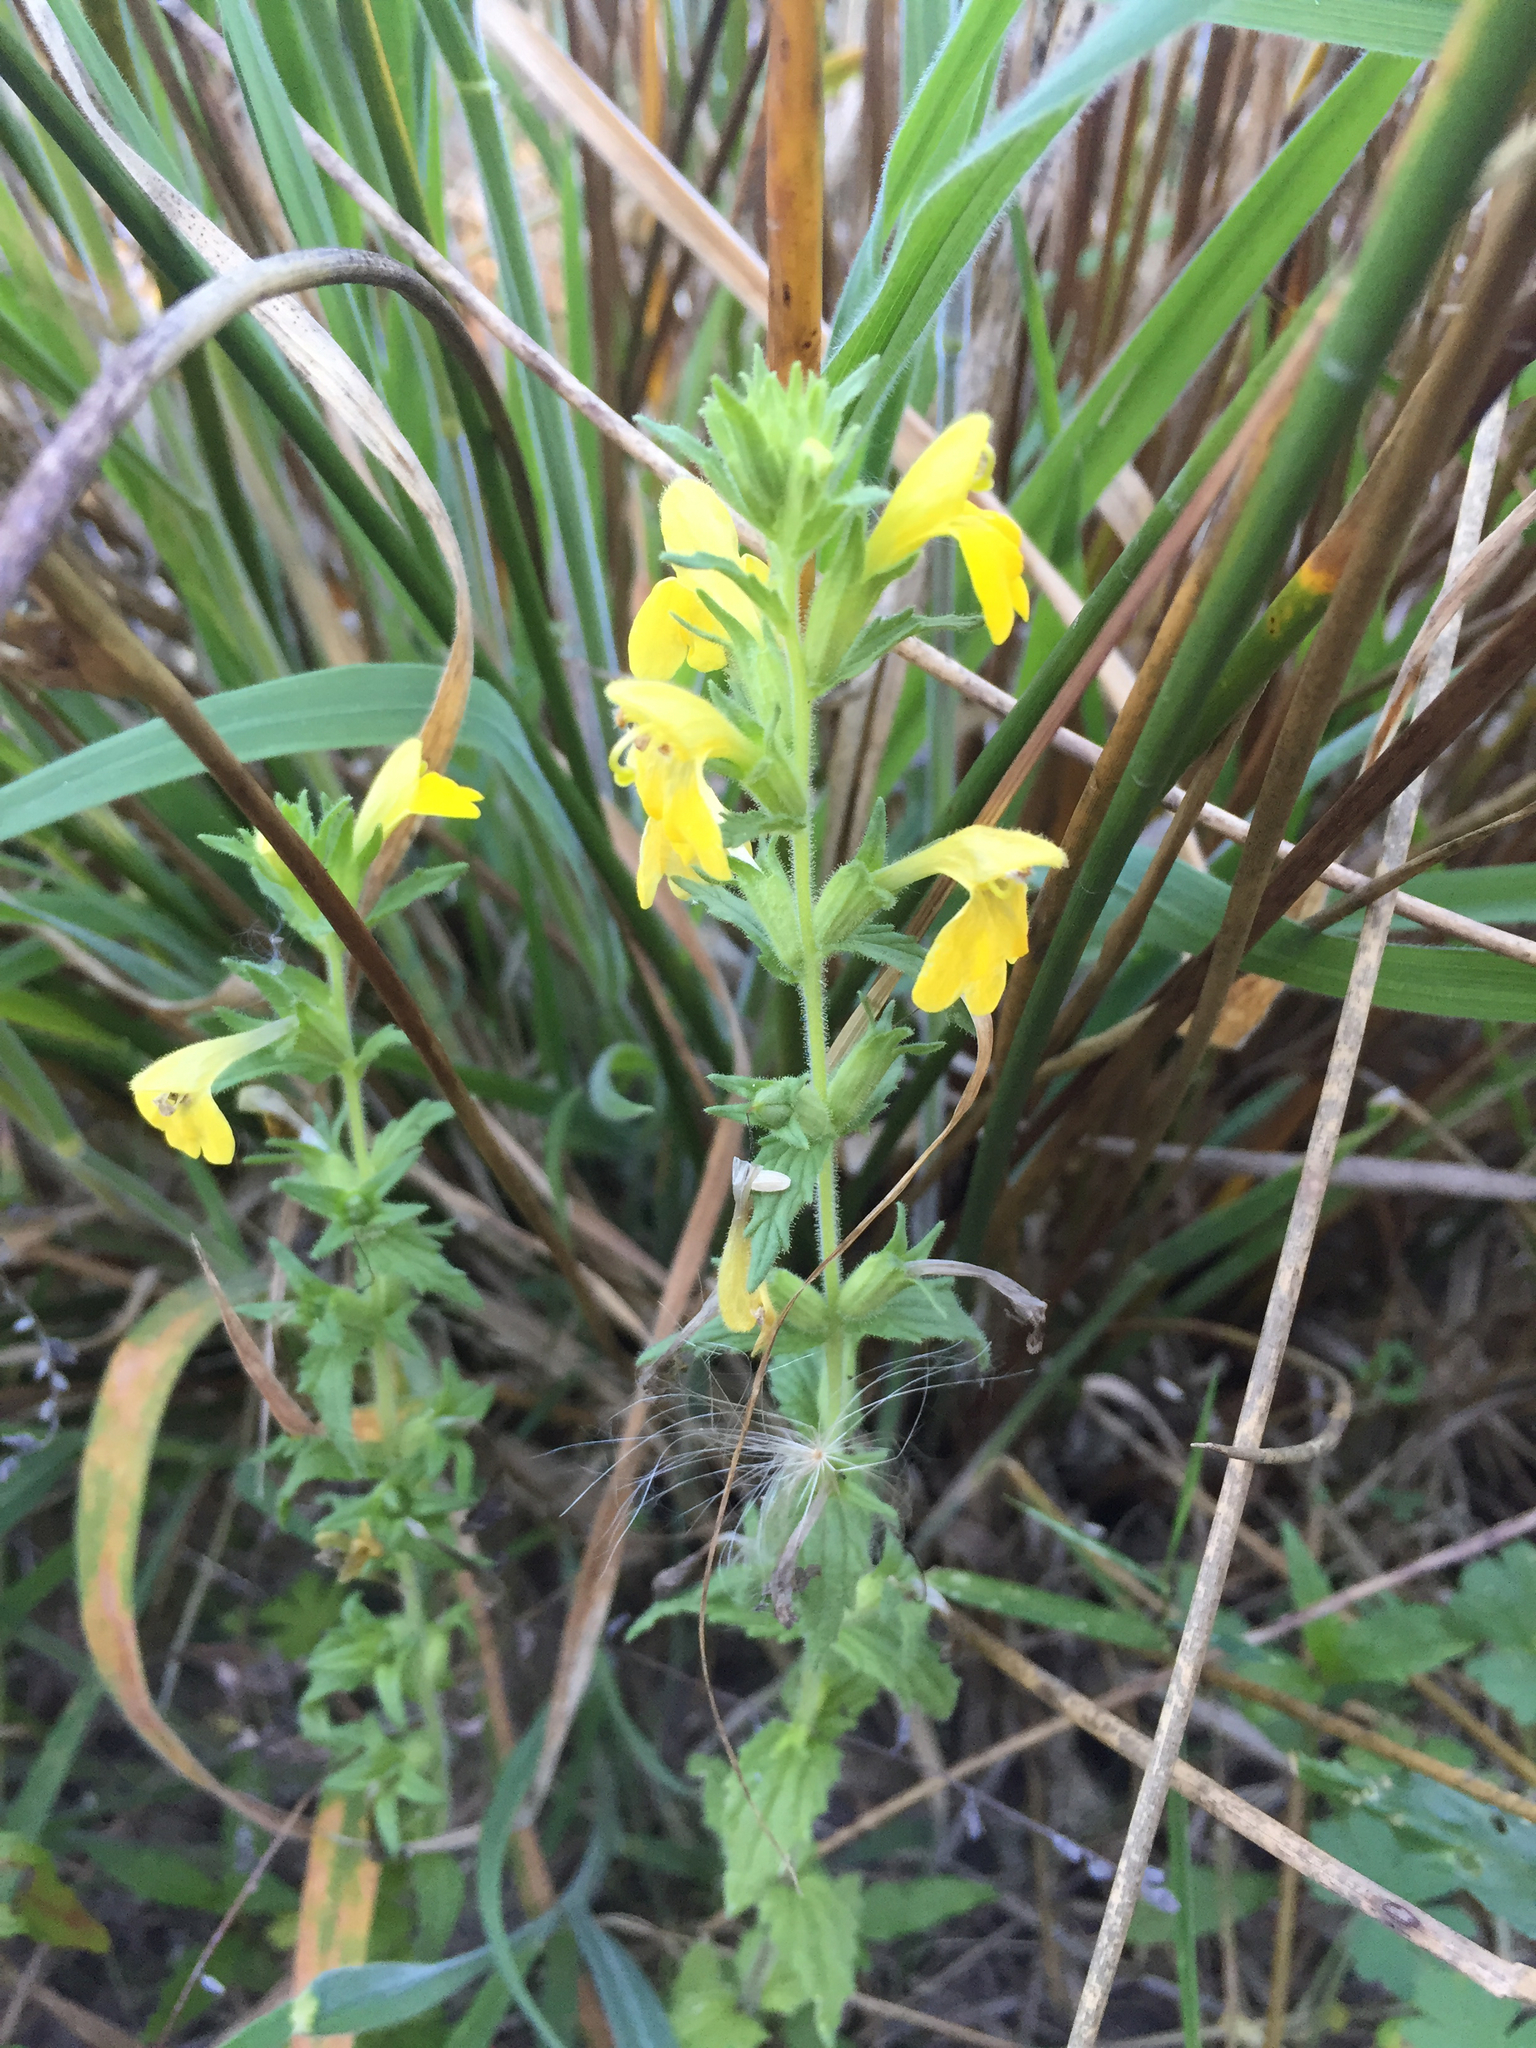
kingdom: Plantae
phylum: Tracheophyta
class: Magnoliopsida
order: Lamiales
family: Orobanchaceae
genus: Bellardia
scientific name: Bellardia viscosa
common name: Sticky parentucellia
